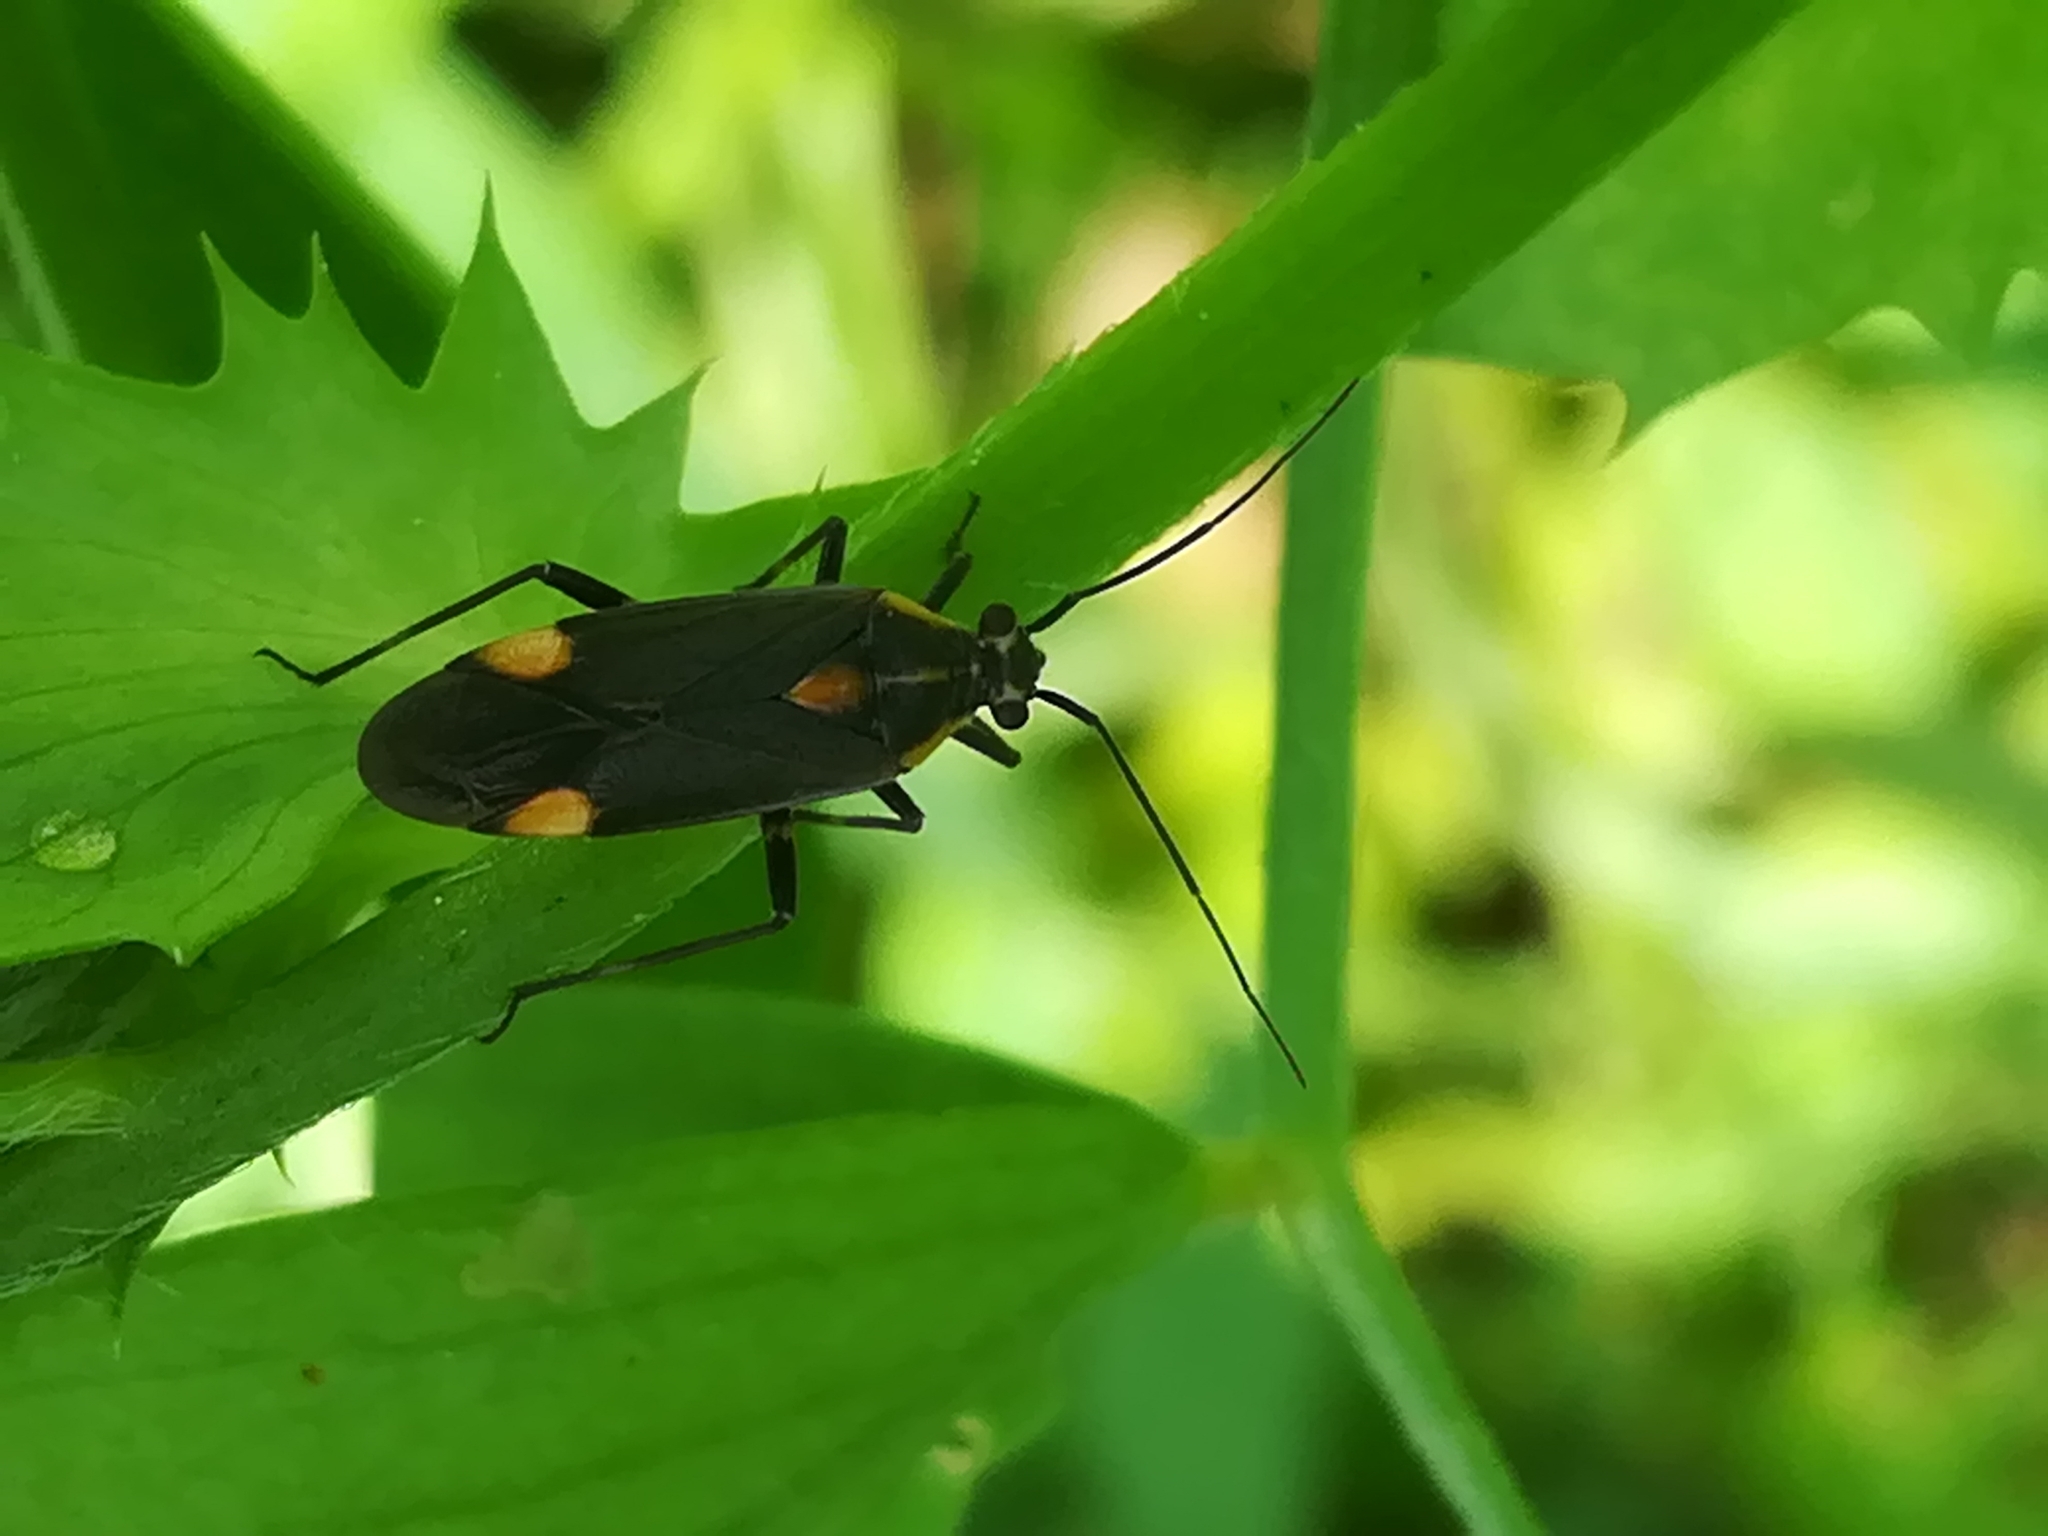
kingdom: Animalia
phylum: Arthropoda
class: Insecta
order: Hemiptera
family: Miridae
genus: Capsodes
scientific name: Capsodes flavomarginatus
